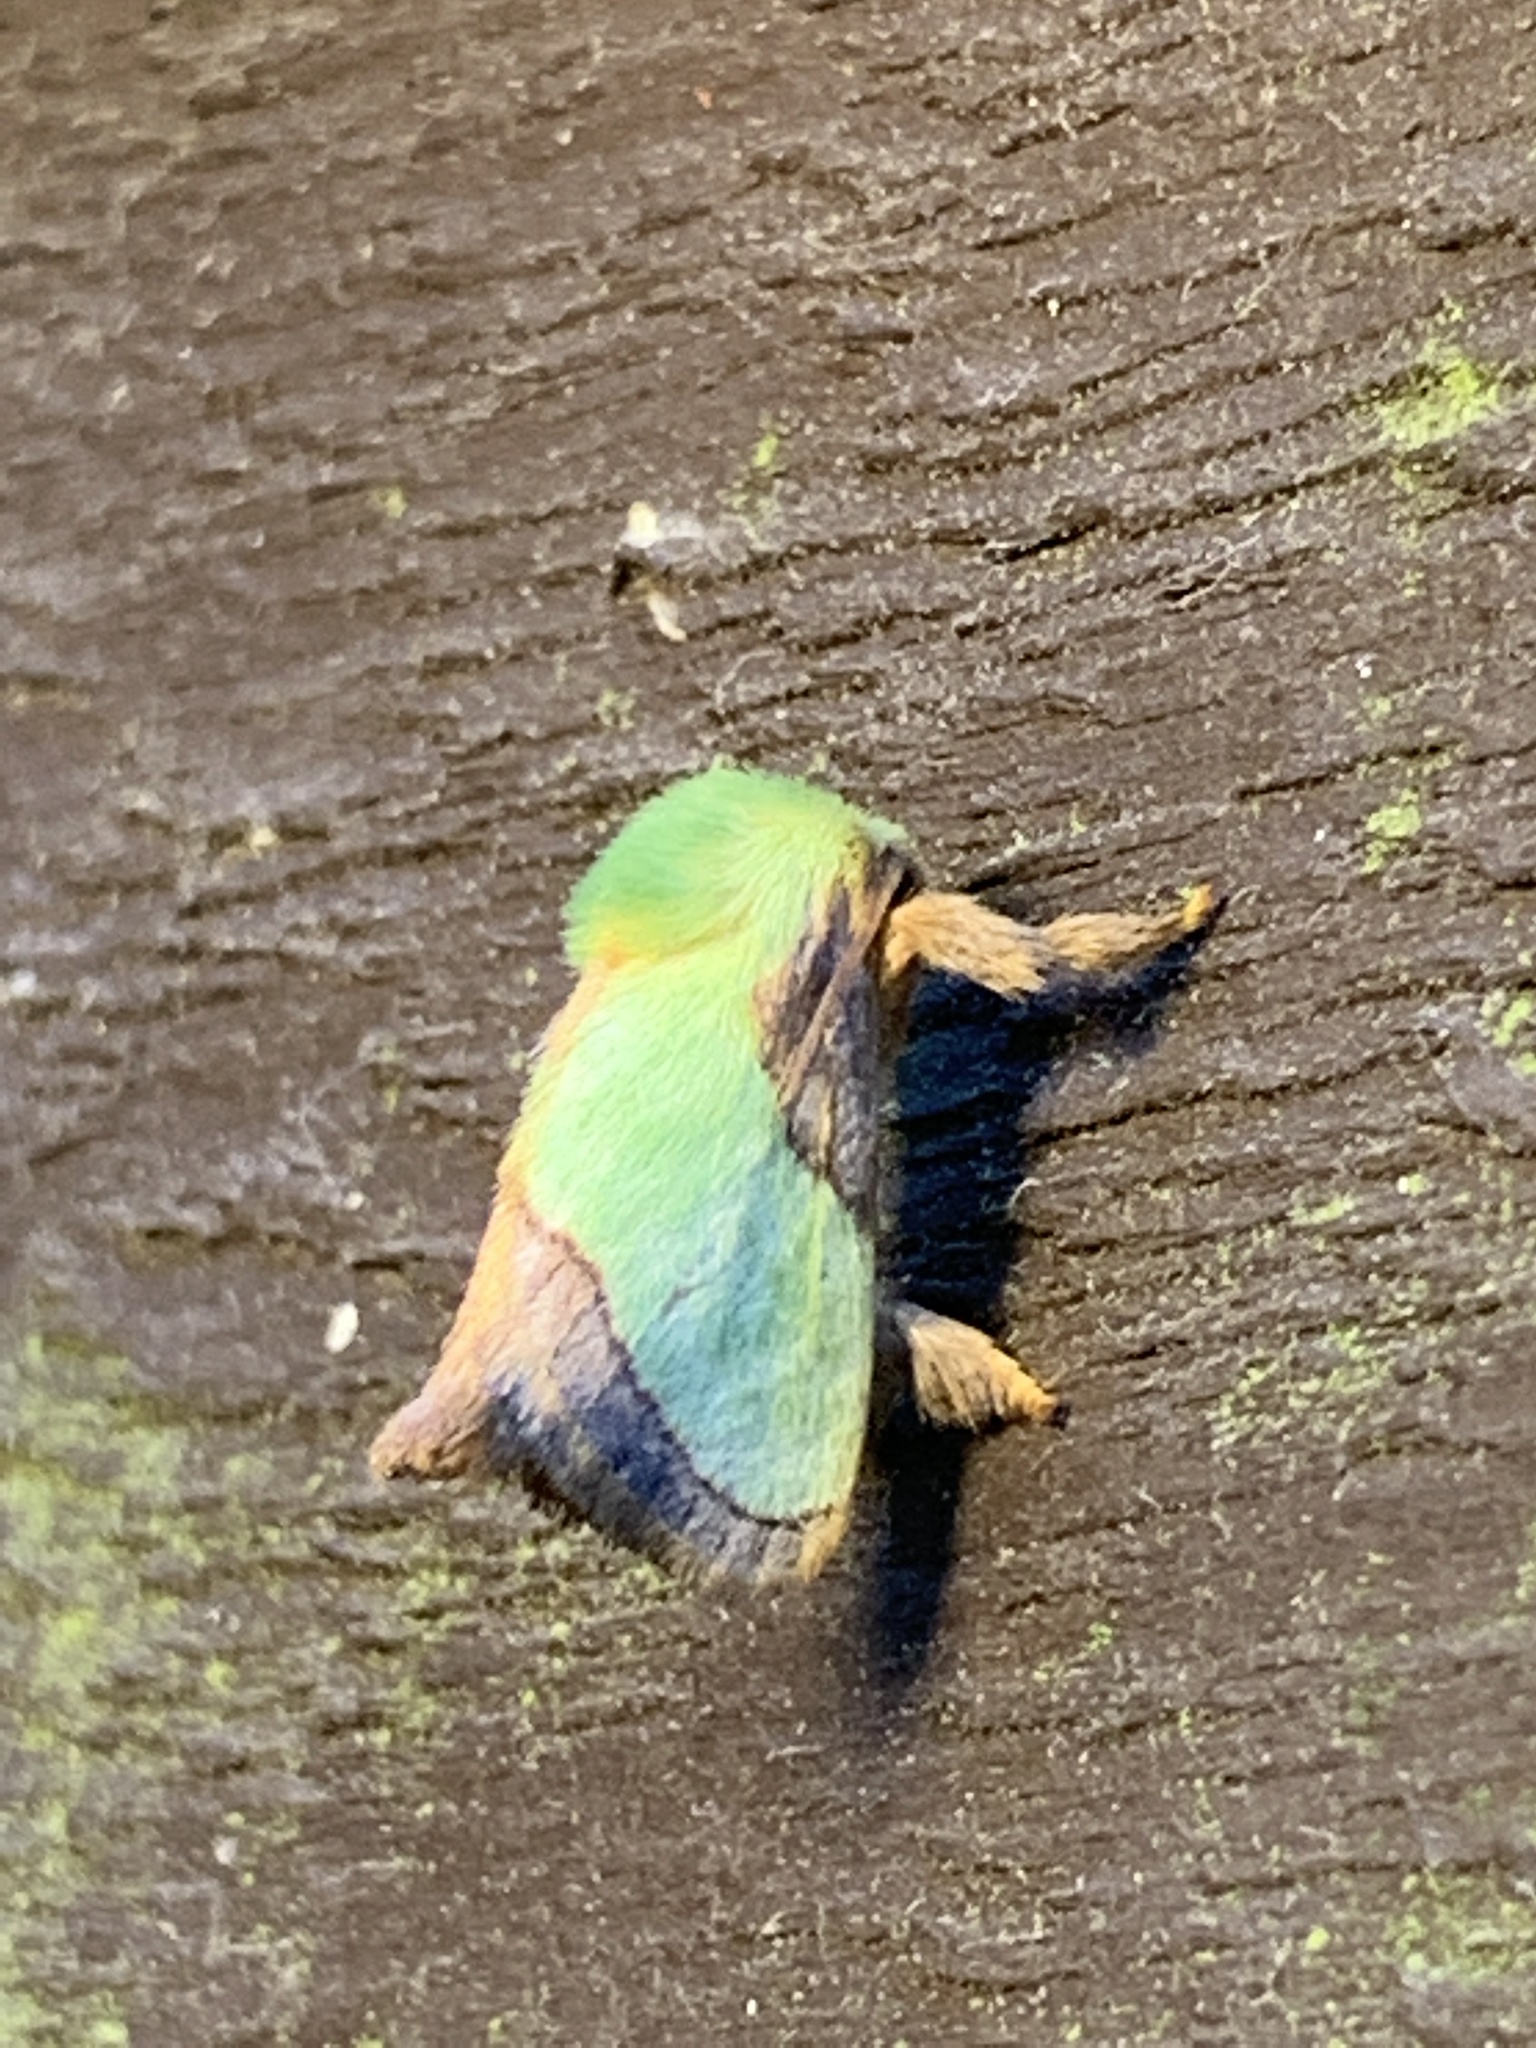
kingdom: Animalia
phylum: Arthropoda
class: Insecta
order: Lepidoptera
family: Limacodidae
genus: Parasa
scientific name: Parasa indetermina
